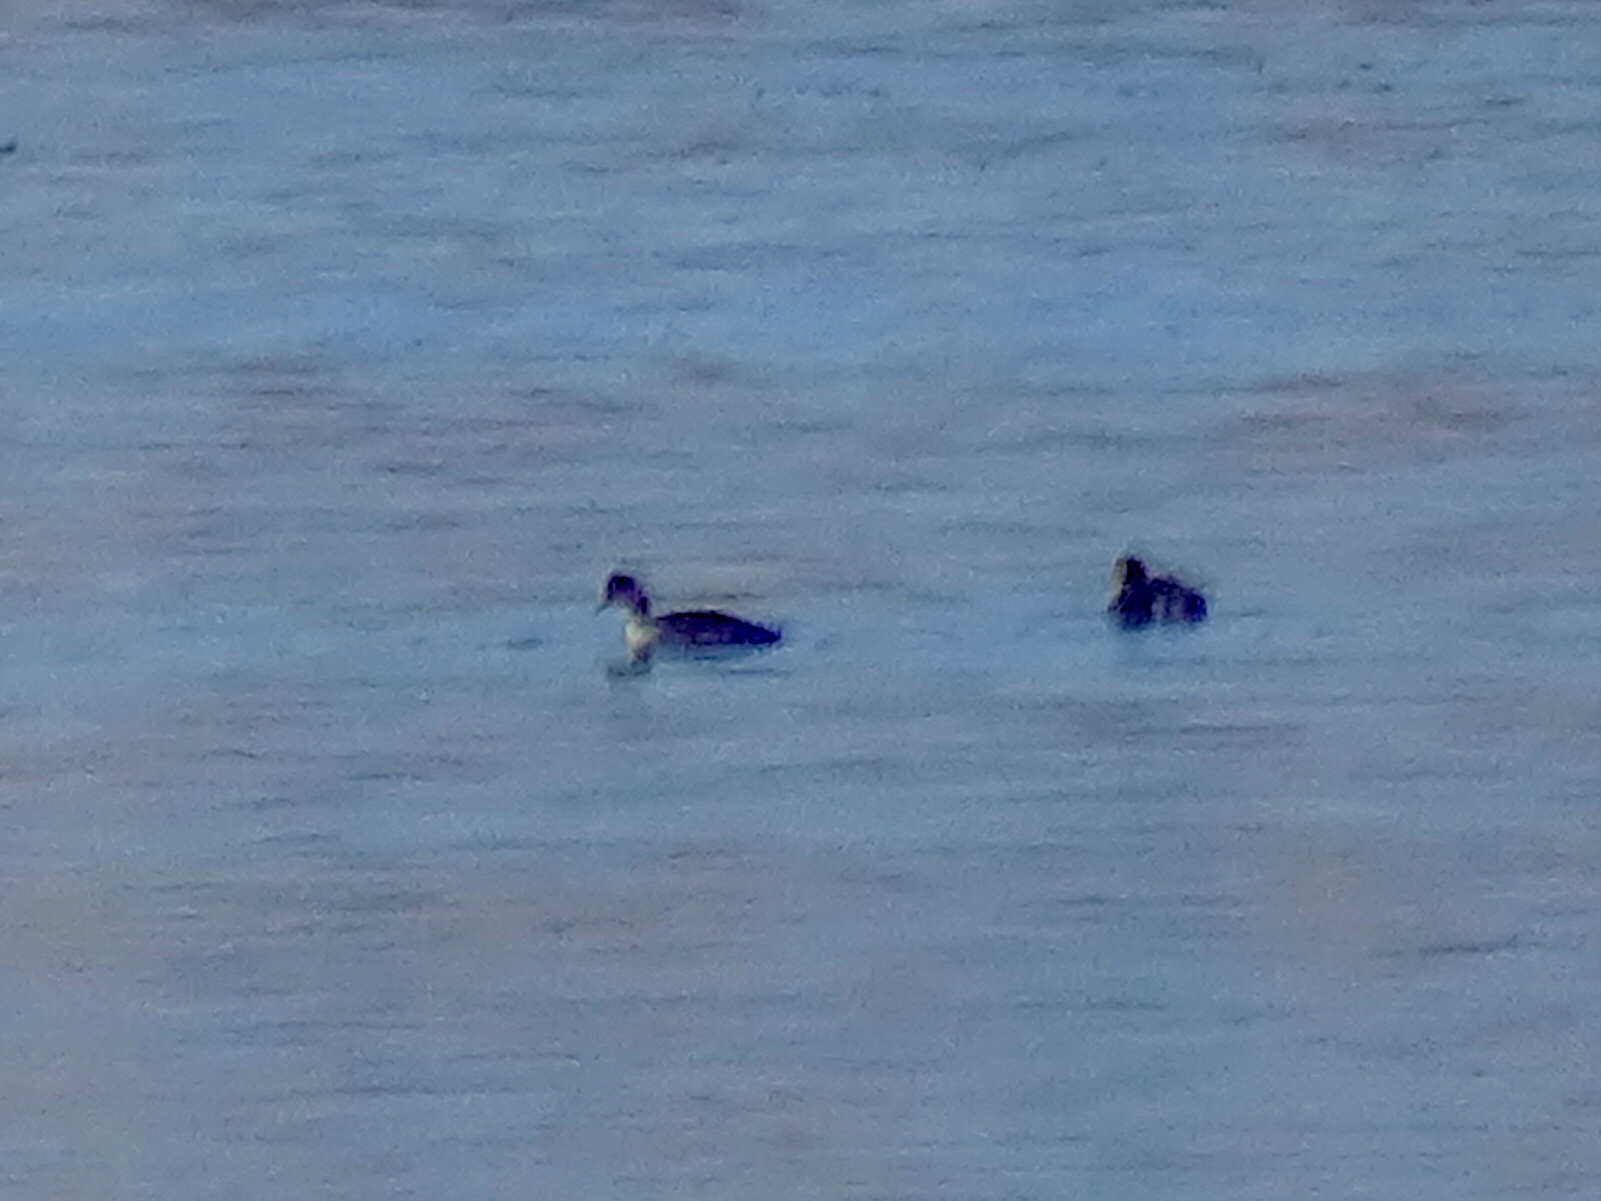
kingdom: Animalia
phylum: Chordata
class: Aves
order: Podicipediformes
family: Podicipedidae
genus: Podiceps
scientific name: Podiceps nigricollis
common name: Black-necked grebe
